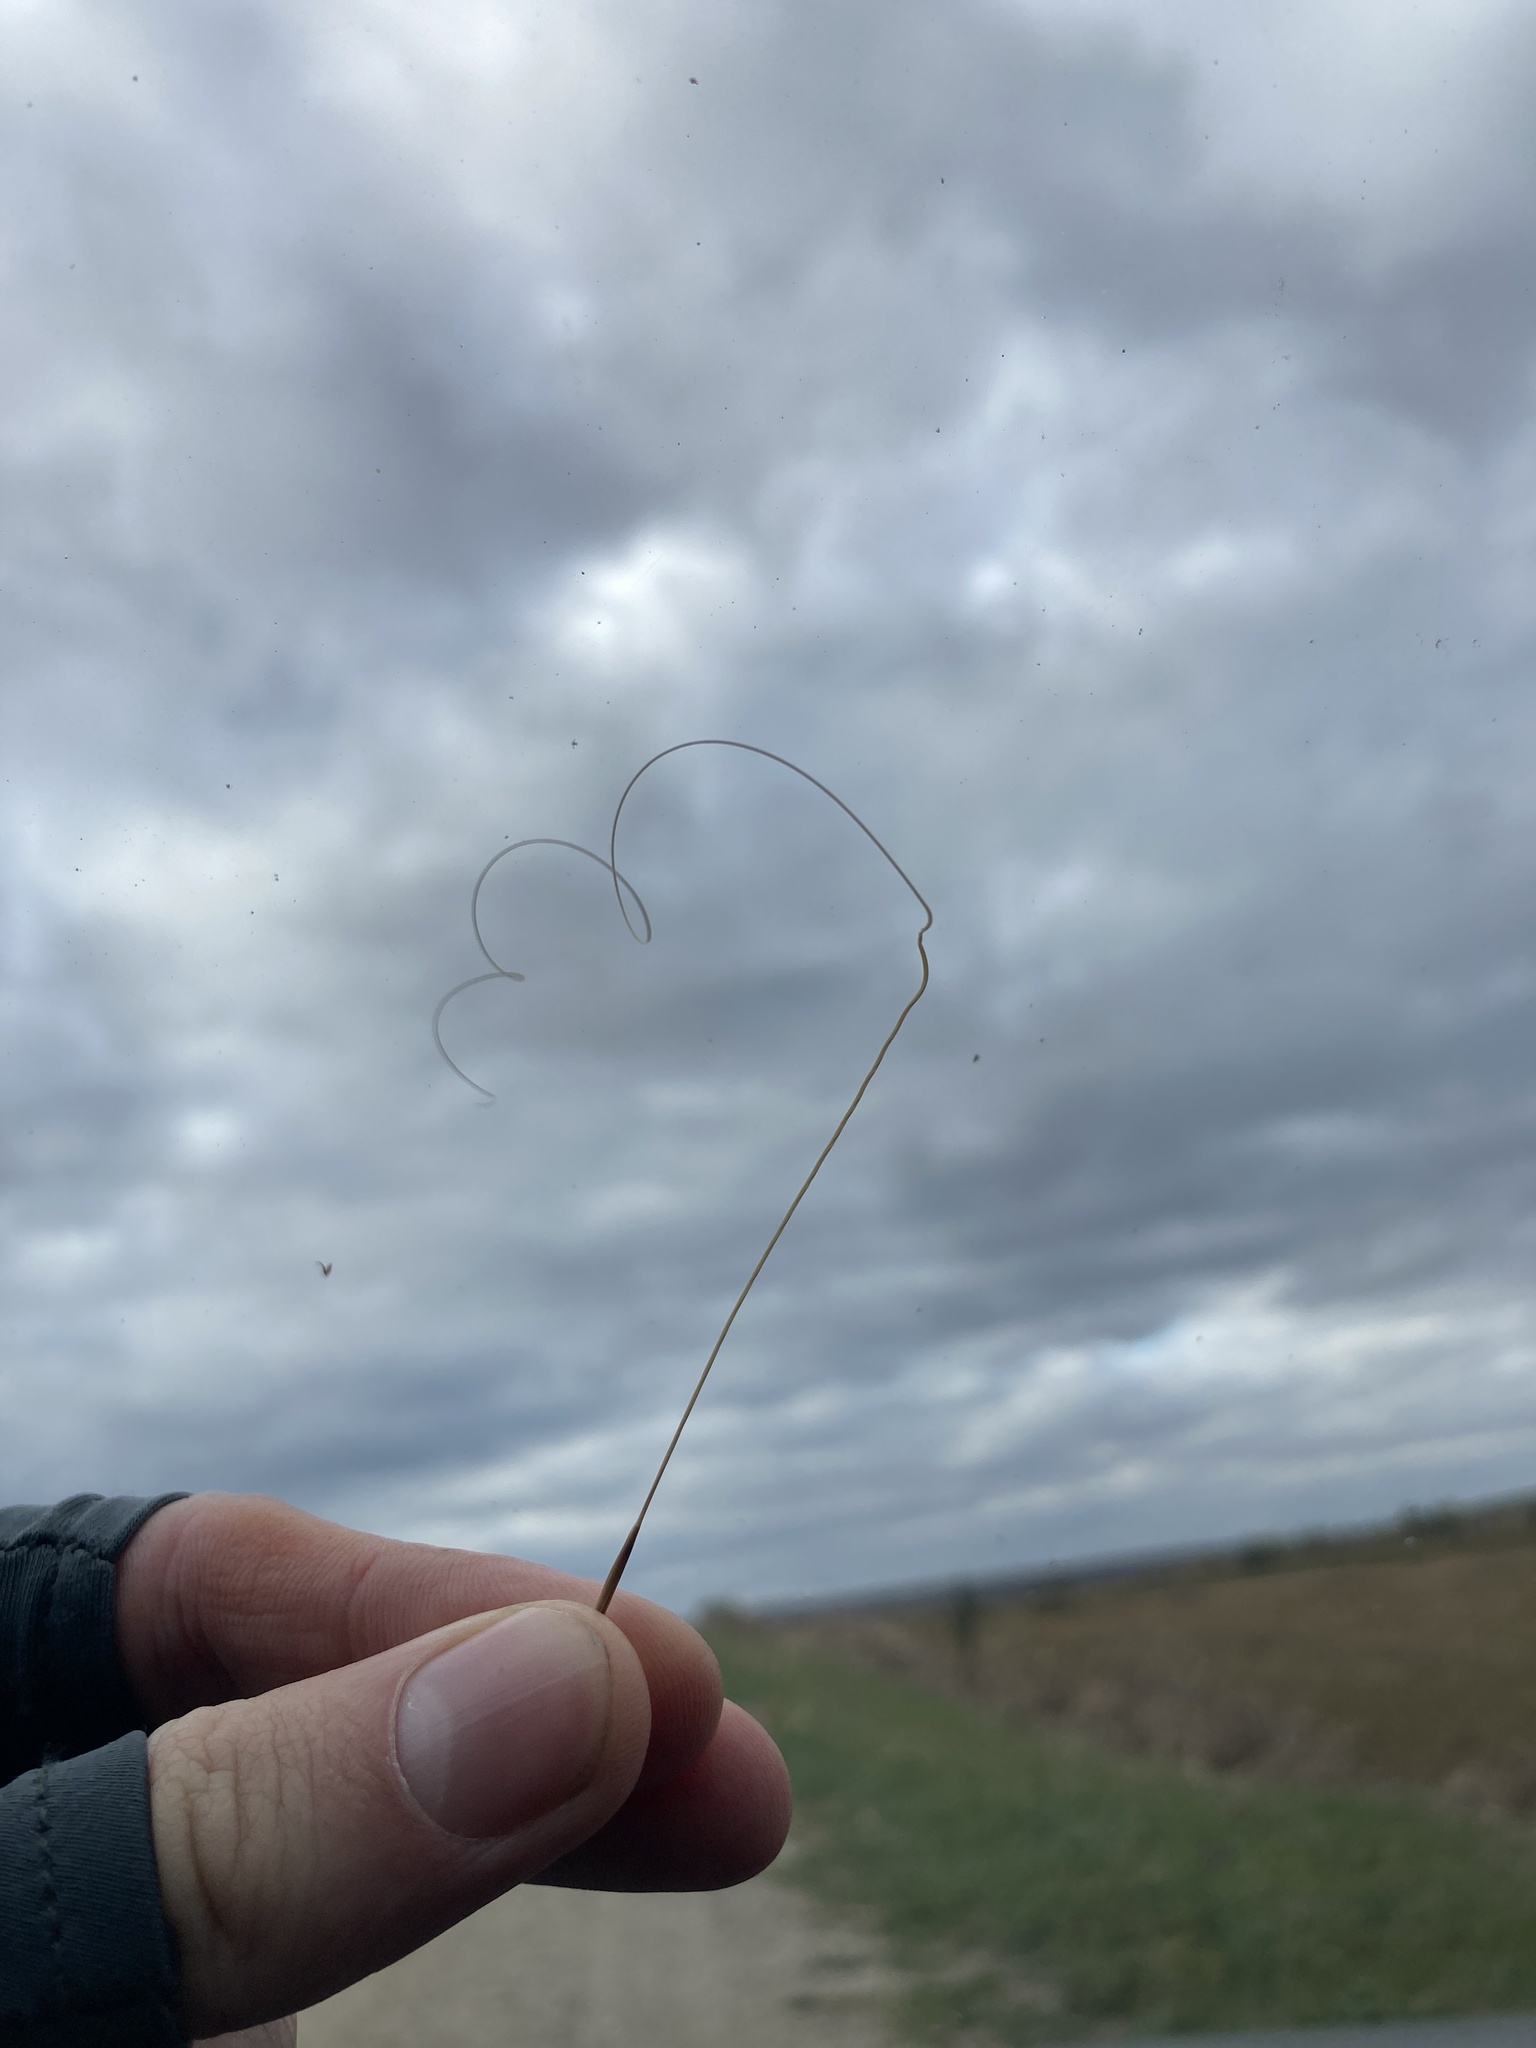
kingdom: Plantae
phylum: Tracheophyta
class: Liliopsida
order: Poales
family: Poaceae
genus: Stipa
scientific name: Stipa capillata
